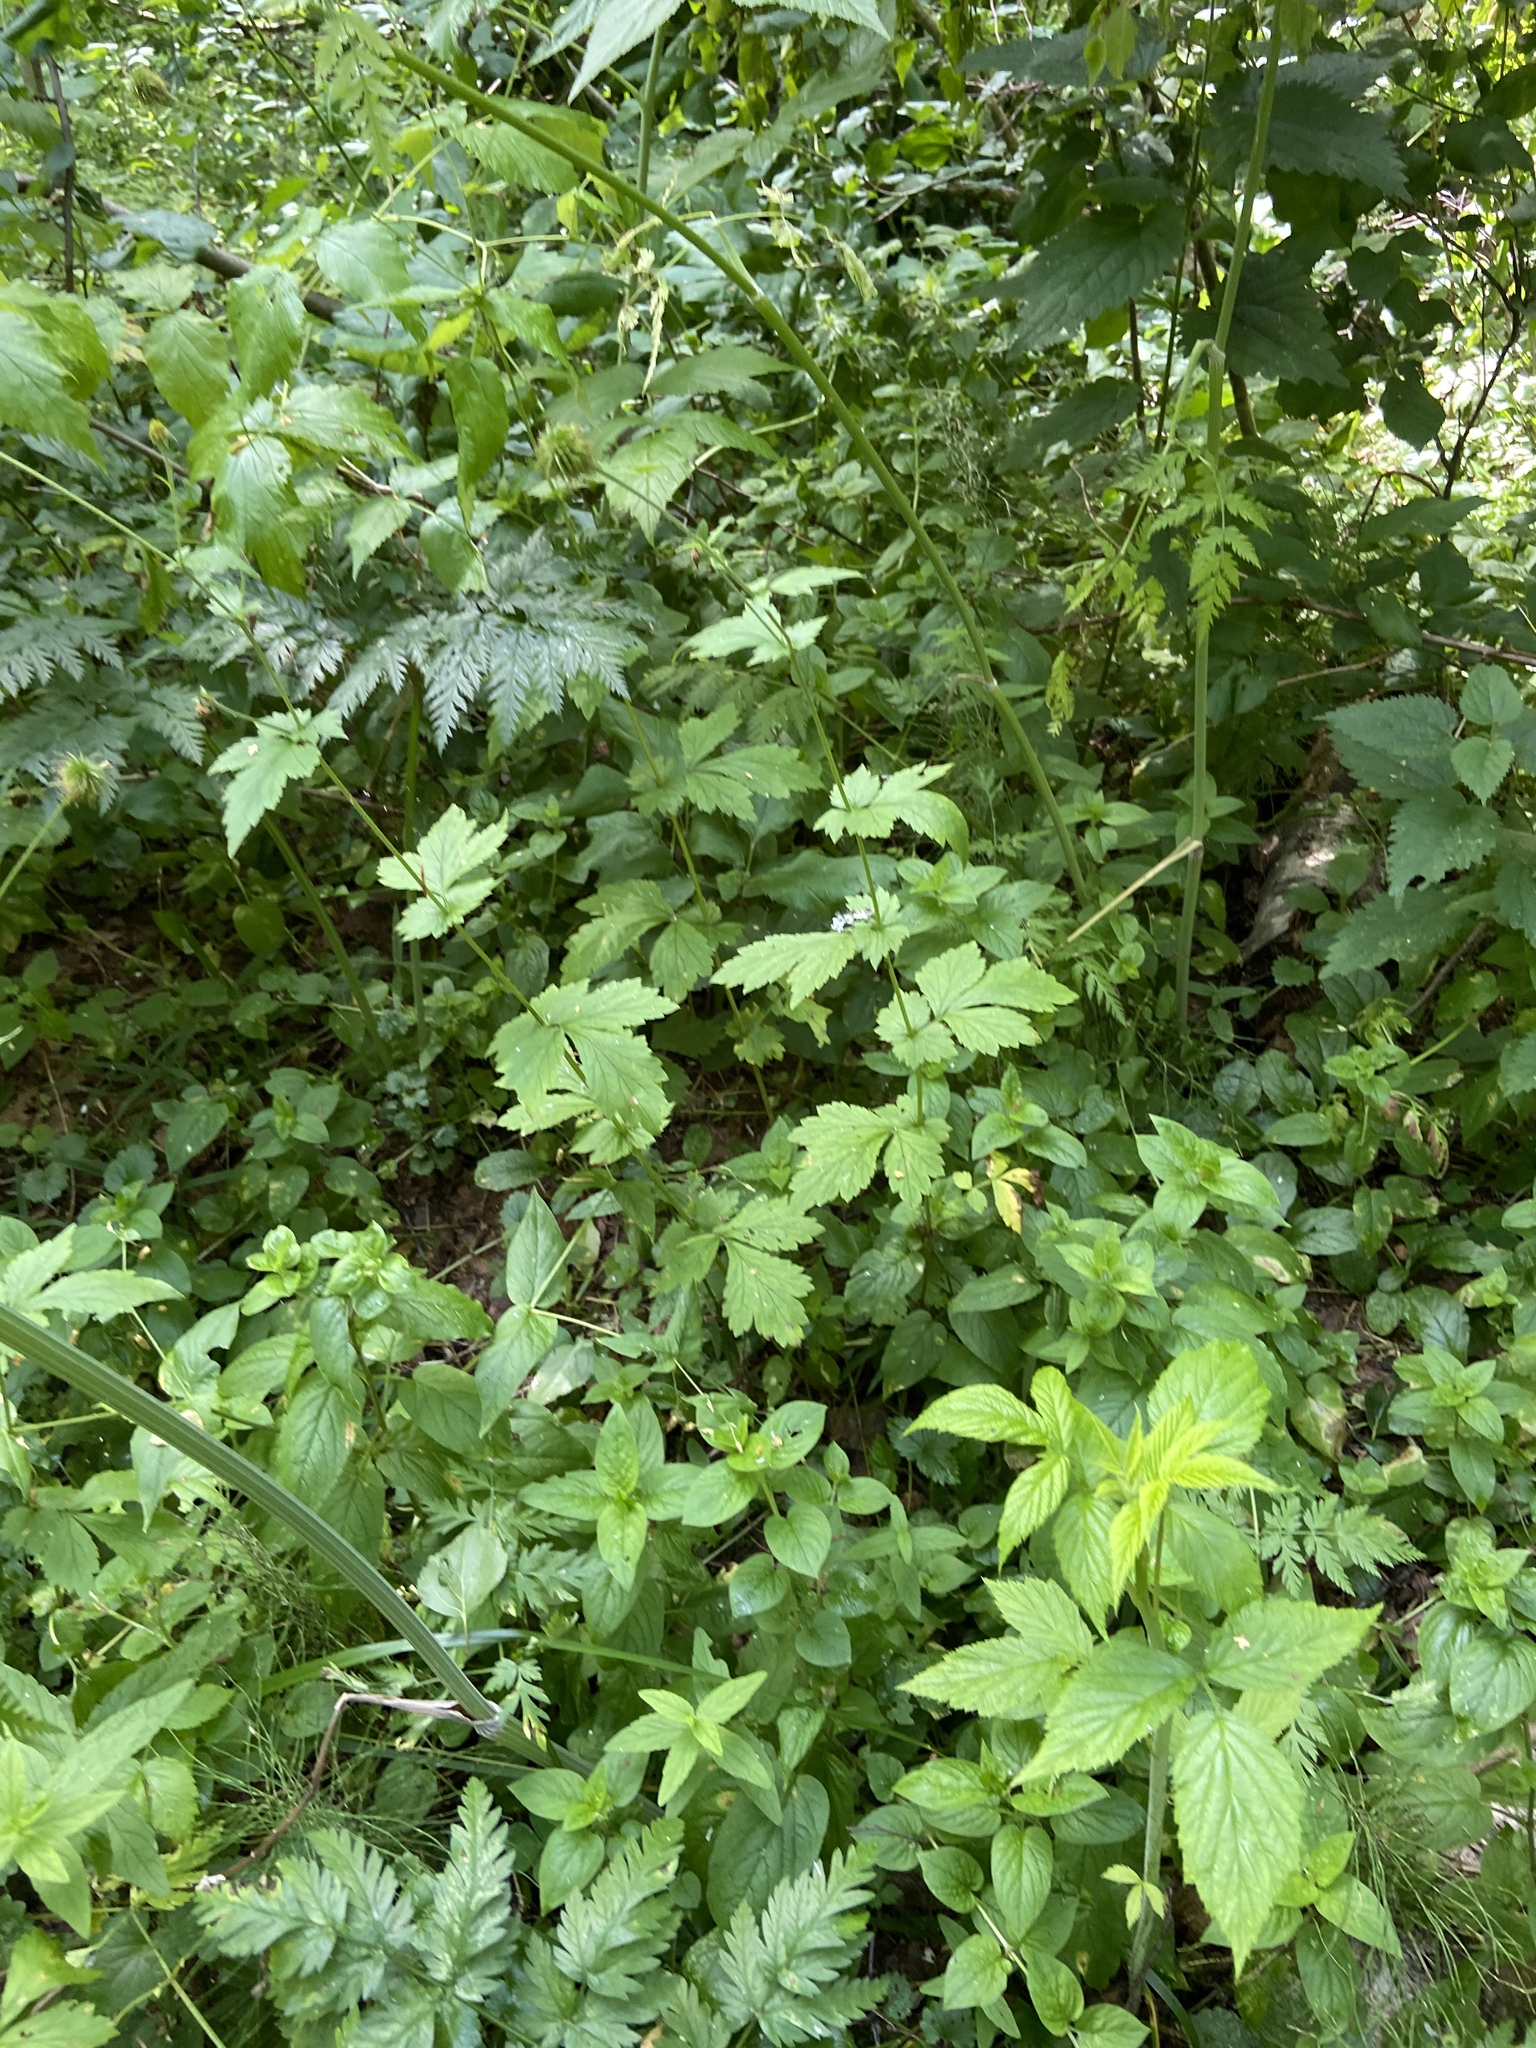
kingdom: Plantae
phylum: Tracheophyta
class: Magnoliopsida
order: Rosales
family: Rosaceae
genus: Geum
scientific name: Geum urbanum
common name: Wood avens
